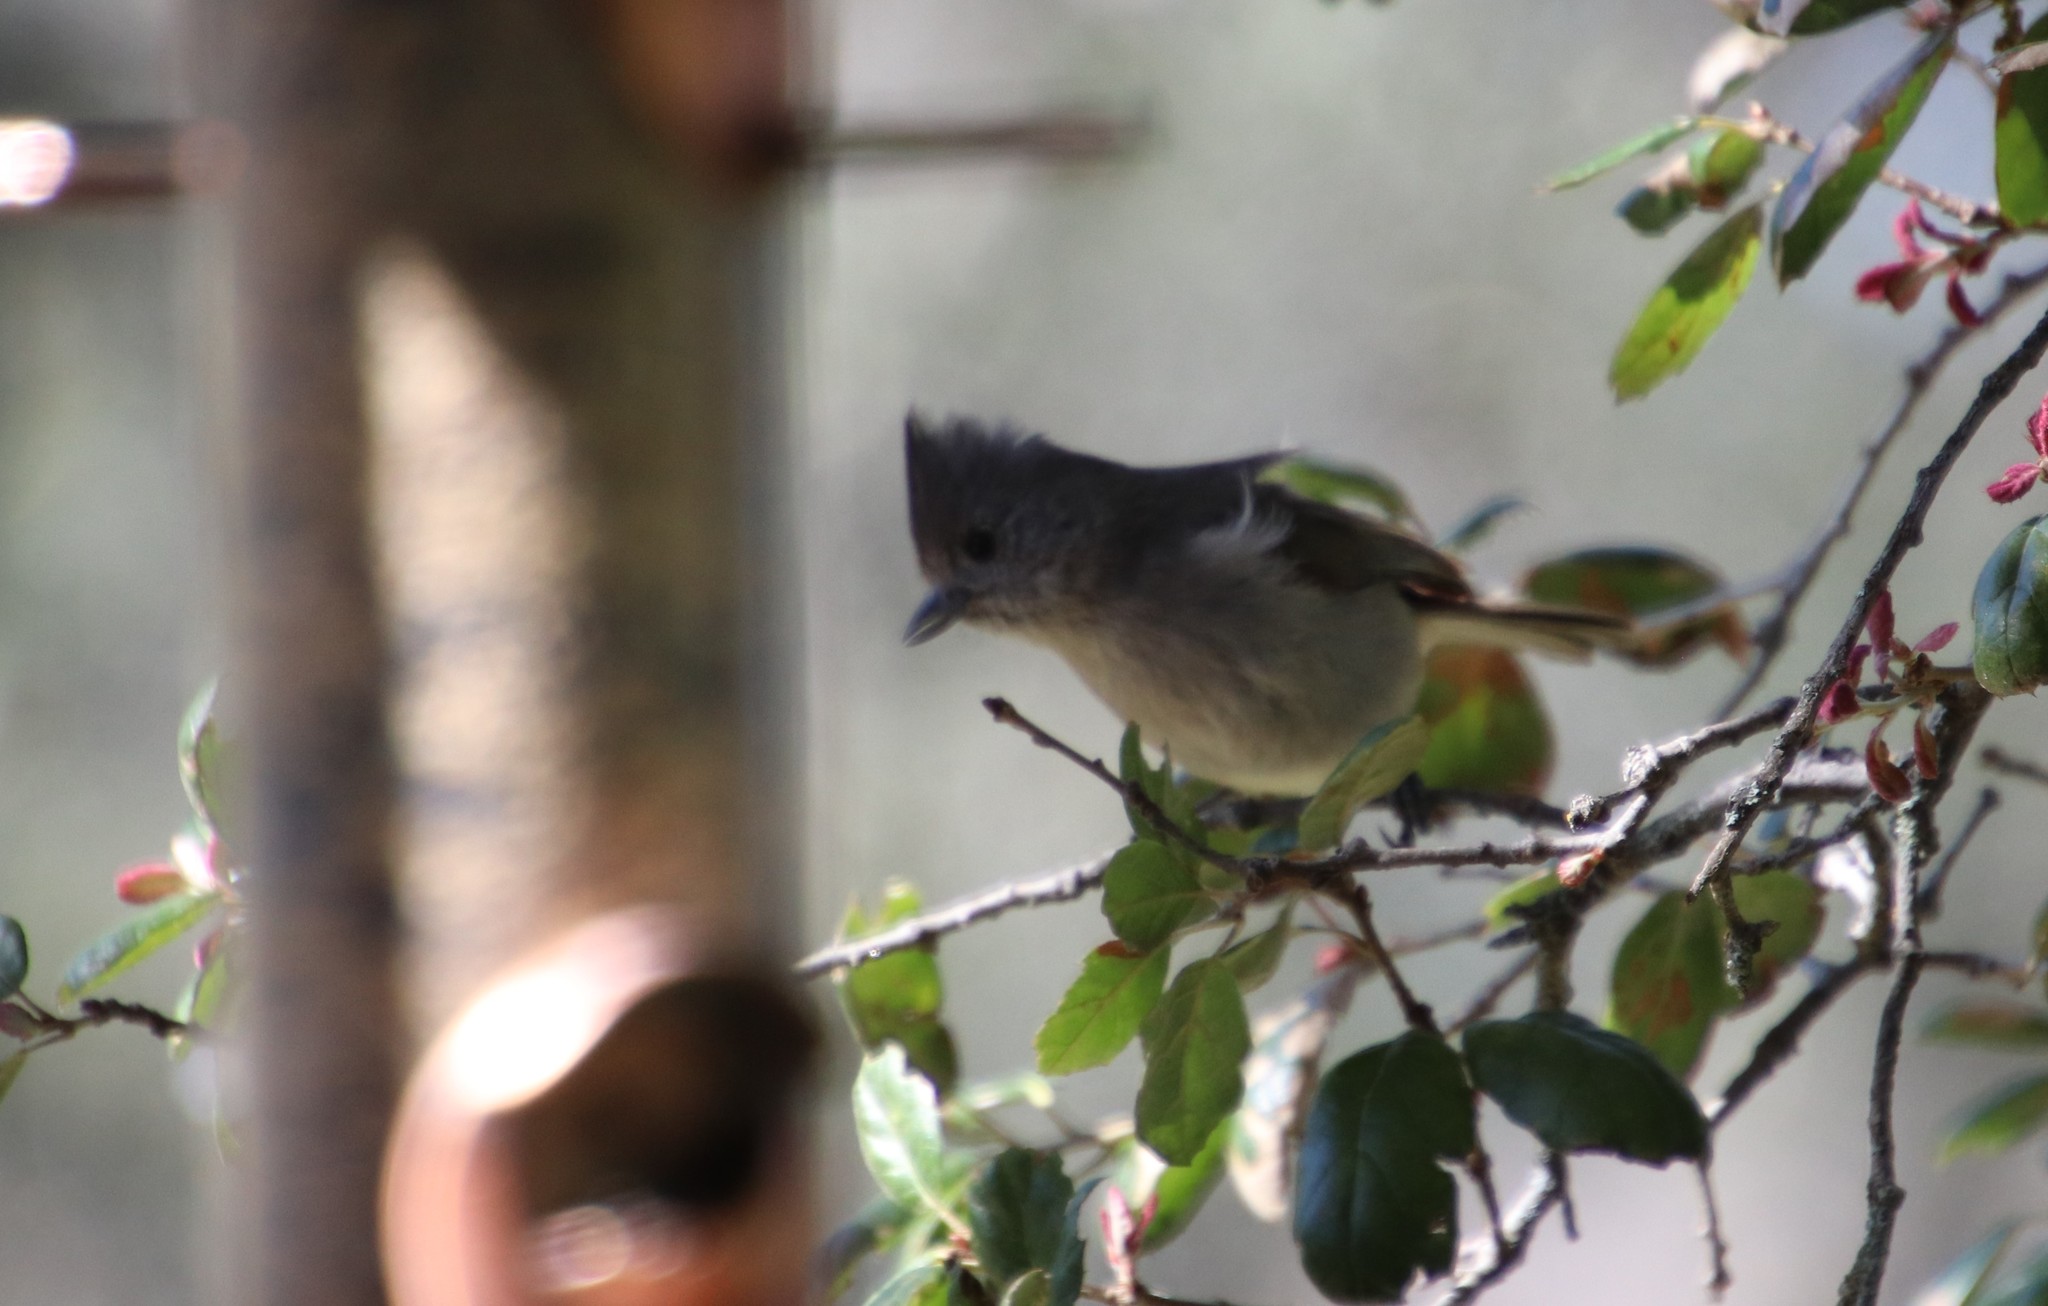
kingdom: Animalia
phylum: Chordata
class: Aves
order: Passeriformes
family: Paridae
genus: Baeolophus
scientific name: Baeolophus inornatus
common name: Oak titmouse
